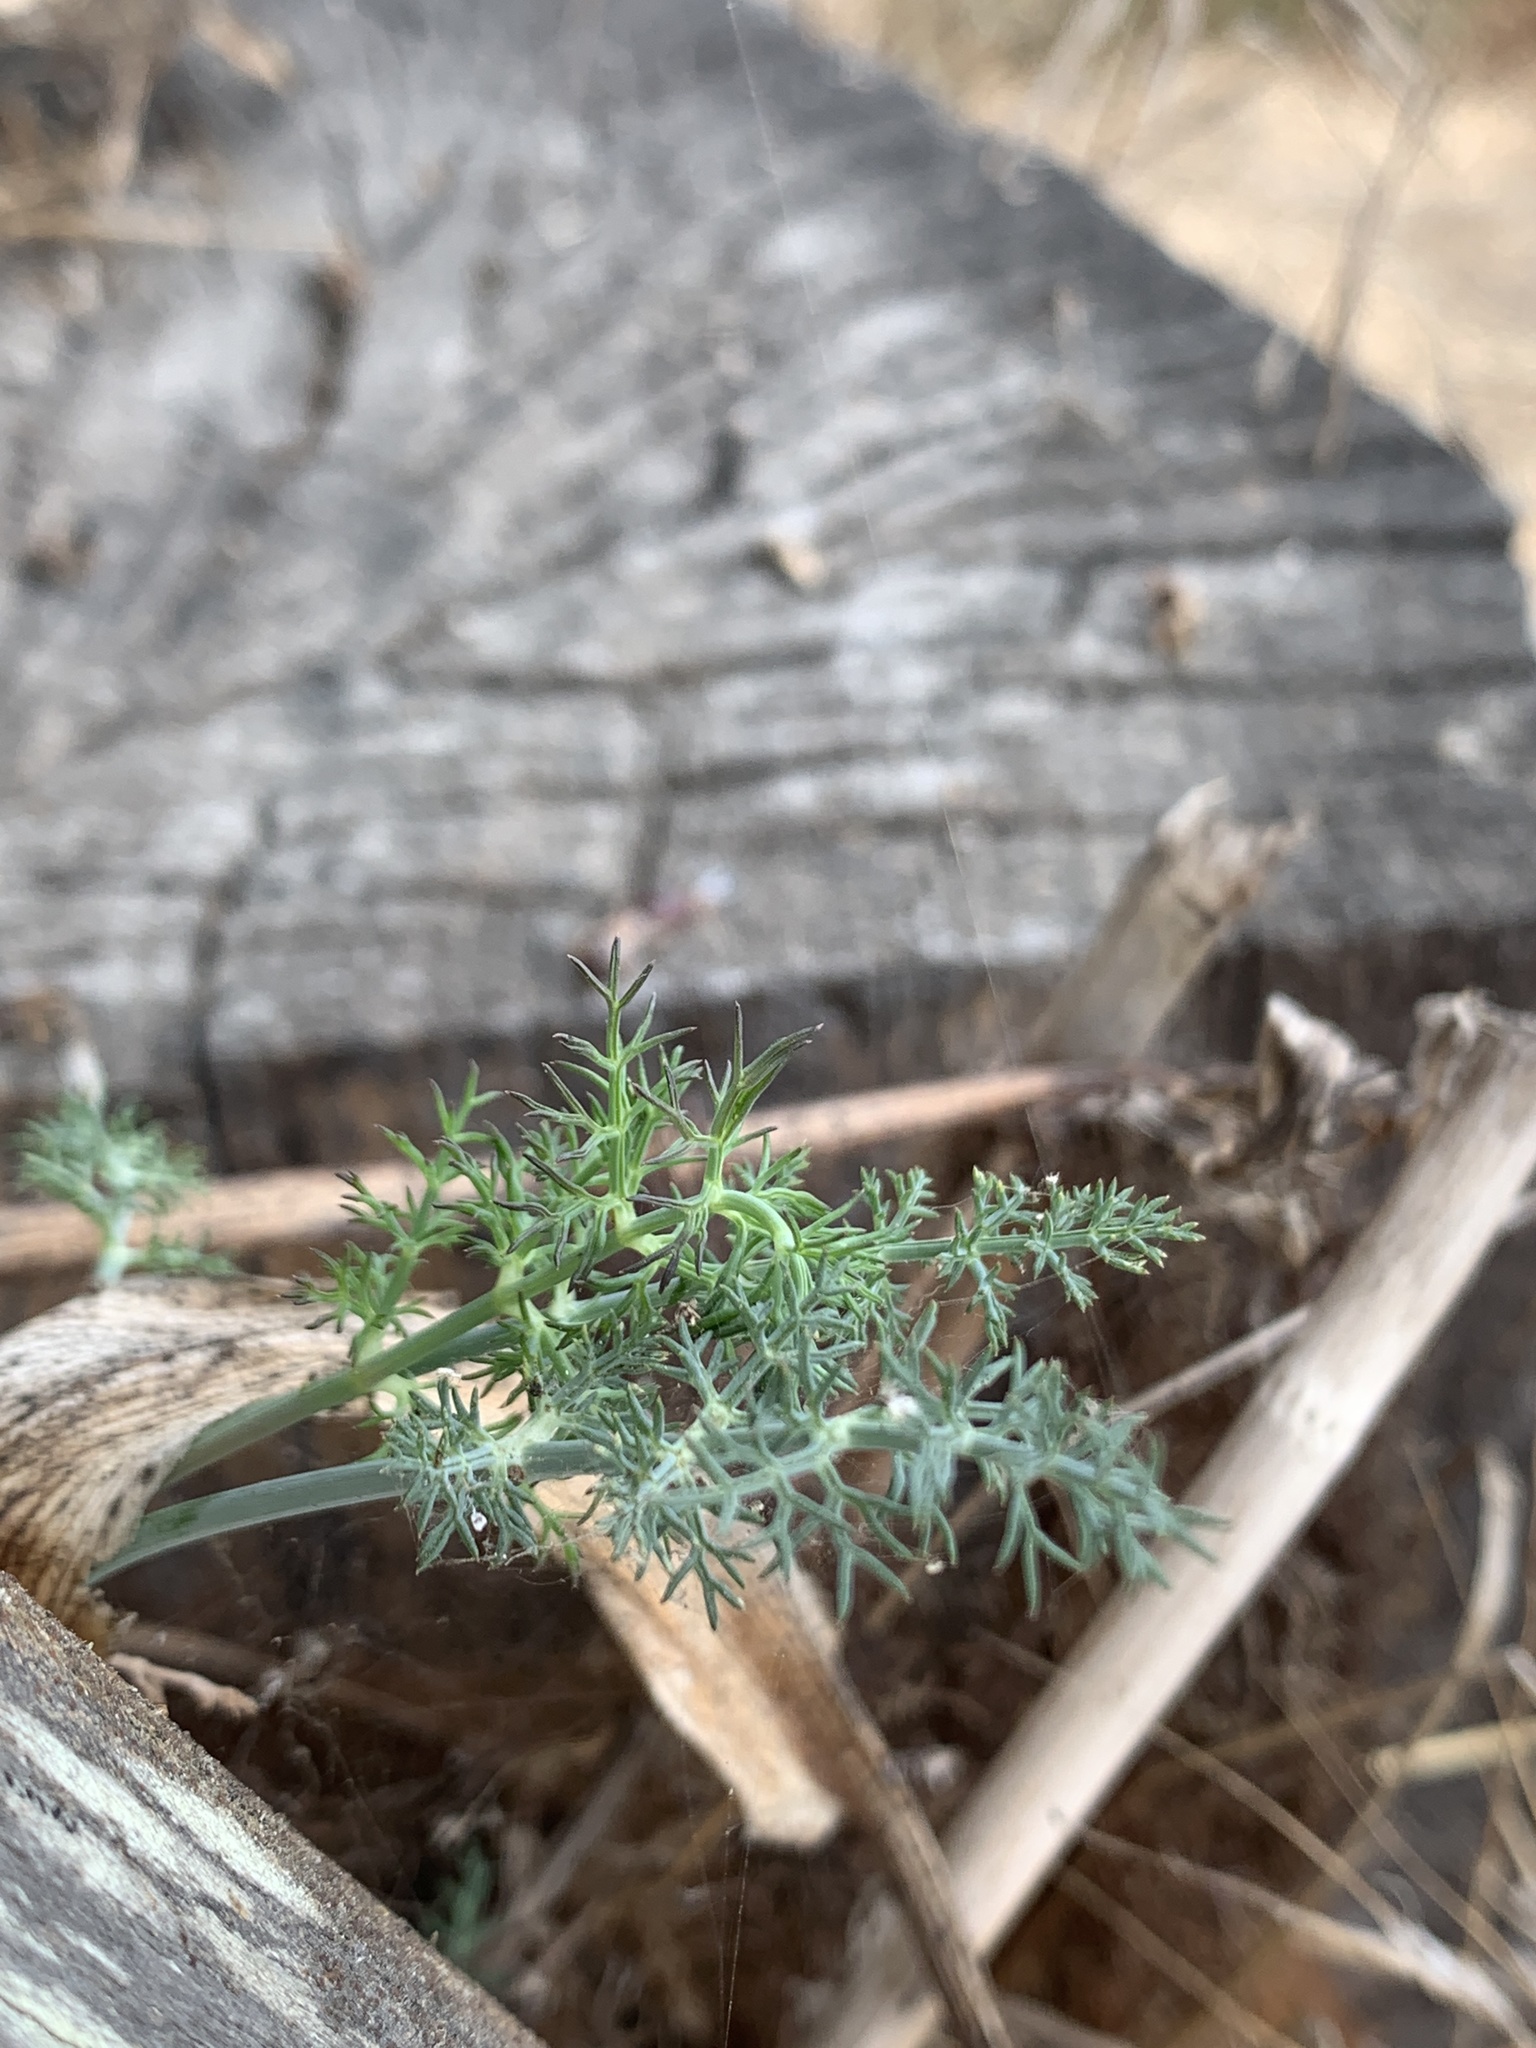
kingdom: Plantae
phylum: Tracheophyta
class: Magnoliopsida
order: Apiales
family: Apiaceae
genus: Foeniculum
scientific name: Foeniculum vulgare
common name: Fennel
